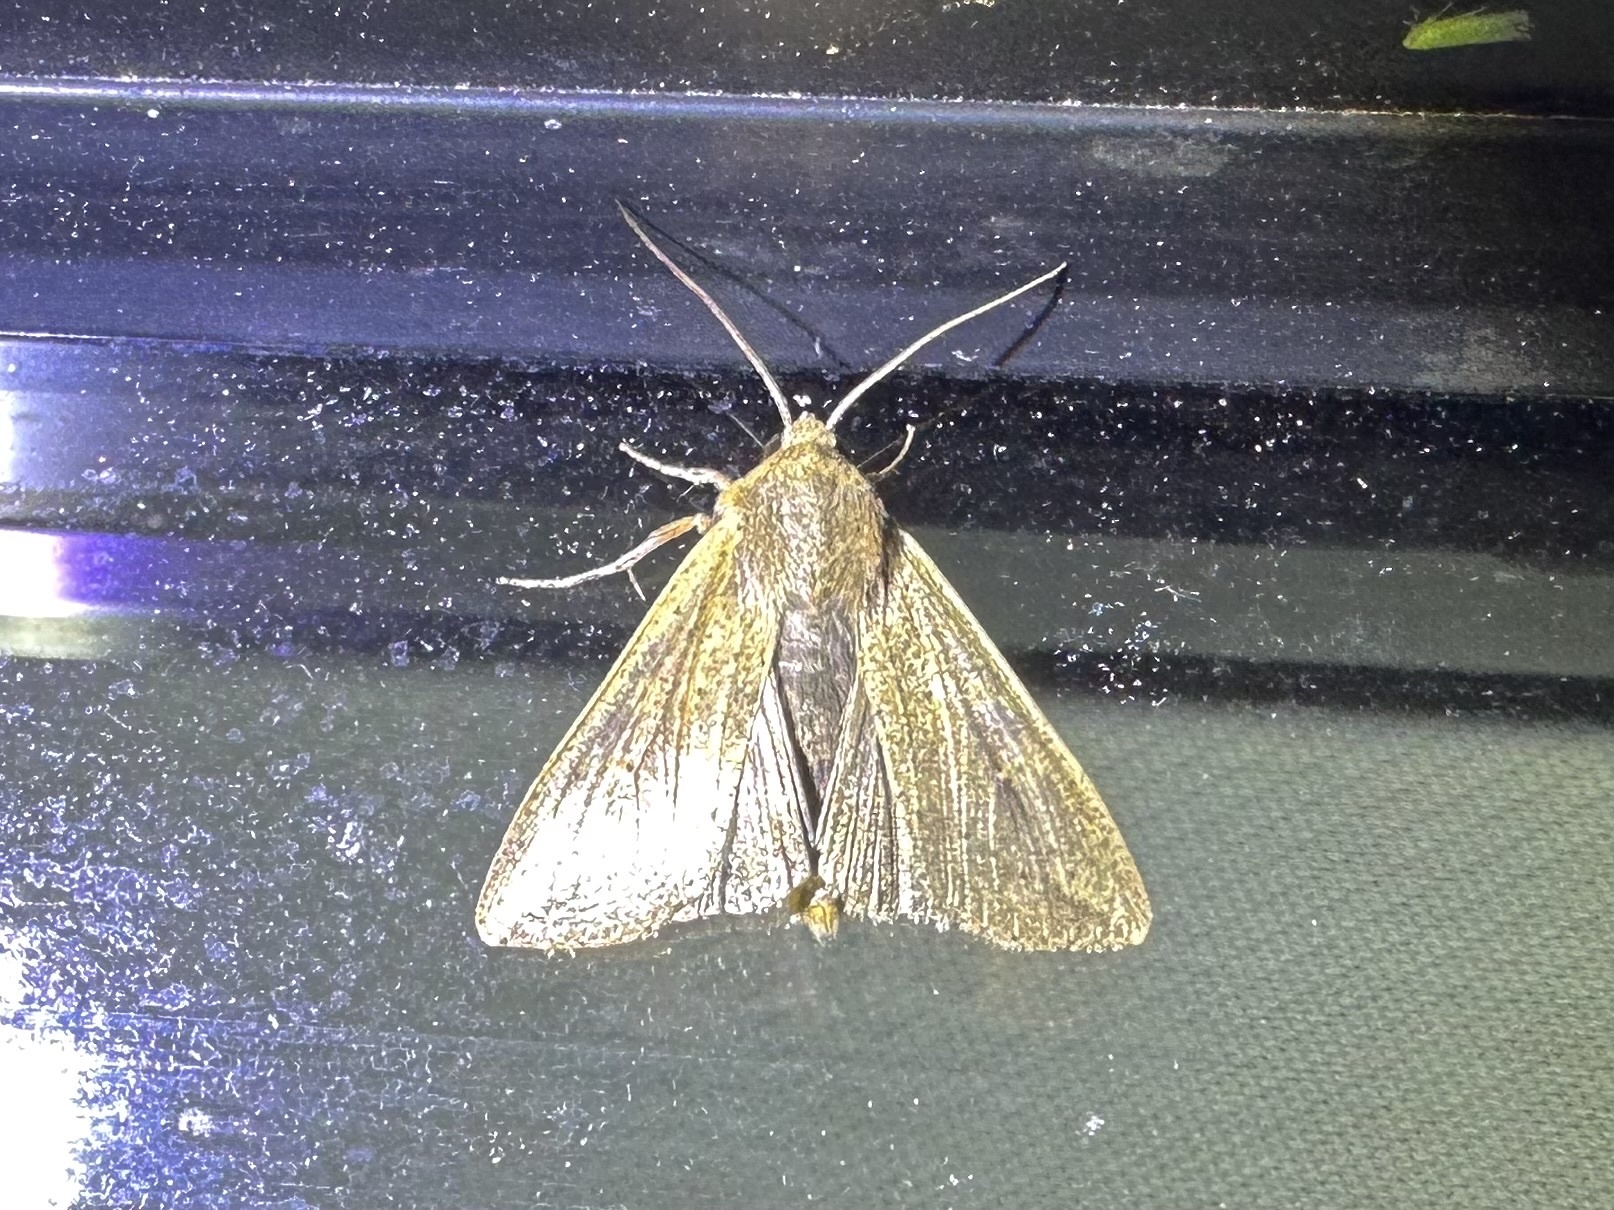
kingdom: Animalia
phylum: Arthropoda
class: Insecta
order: Lepidoptera
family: Noctuidae
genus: Mythimna
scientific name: Mythimna unipuncta
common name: White-speck
